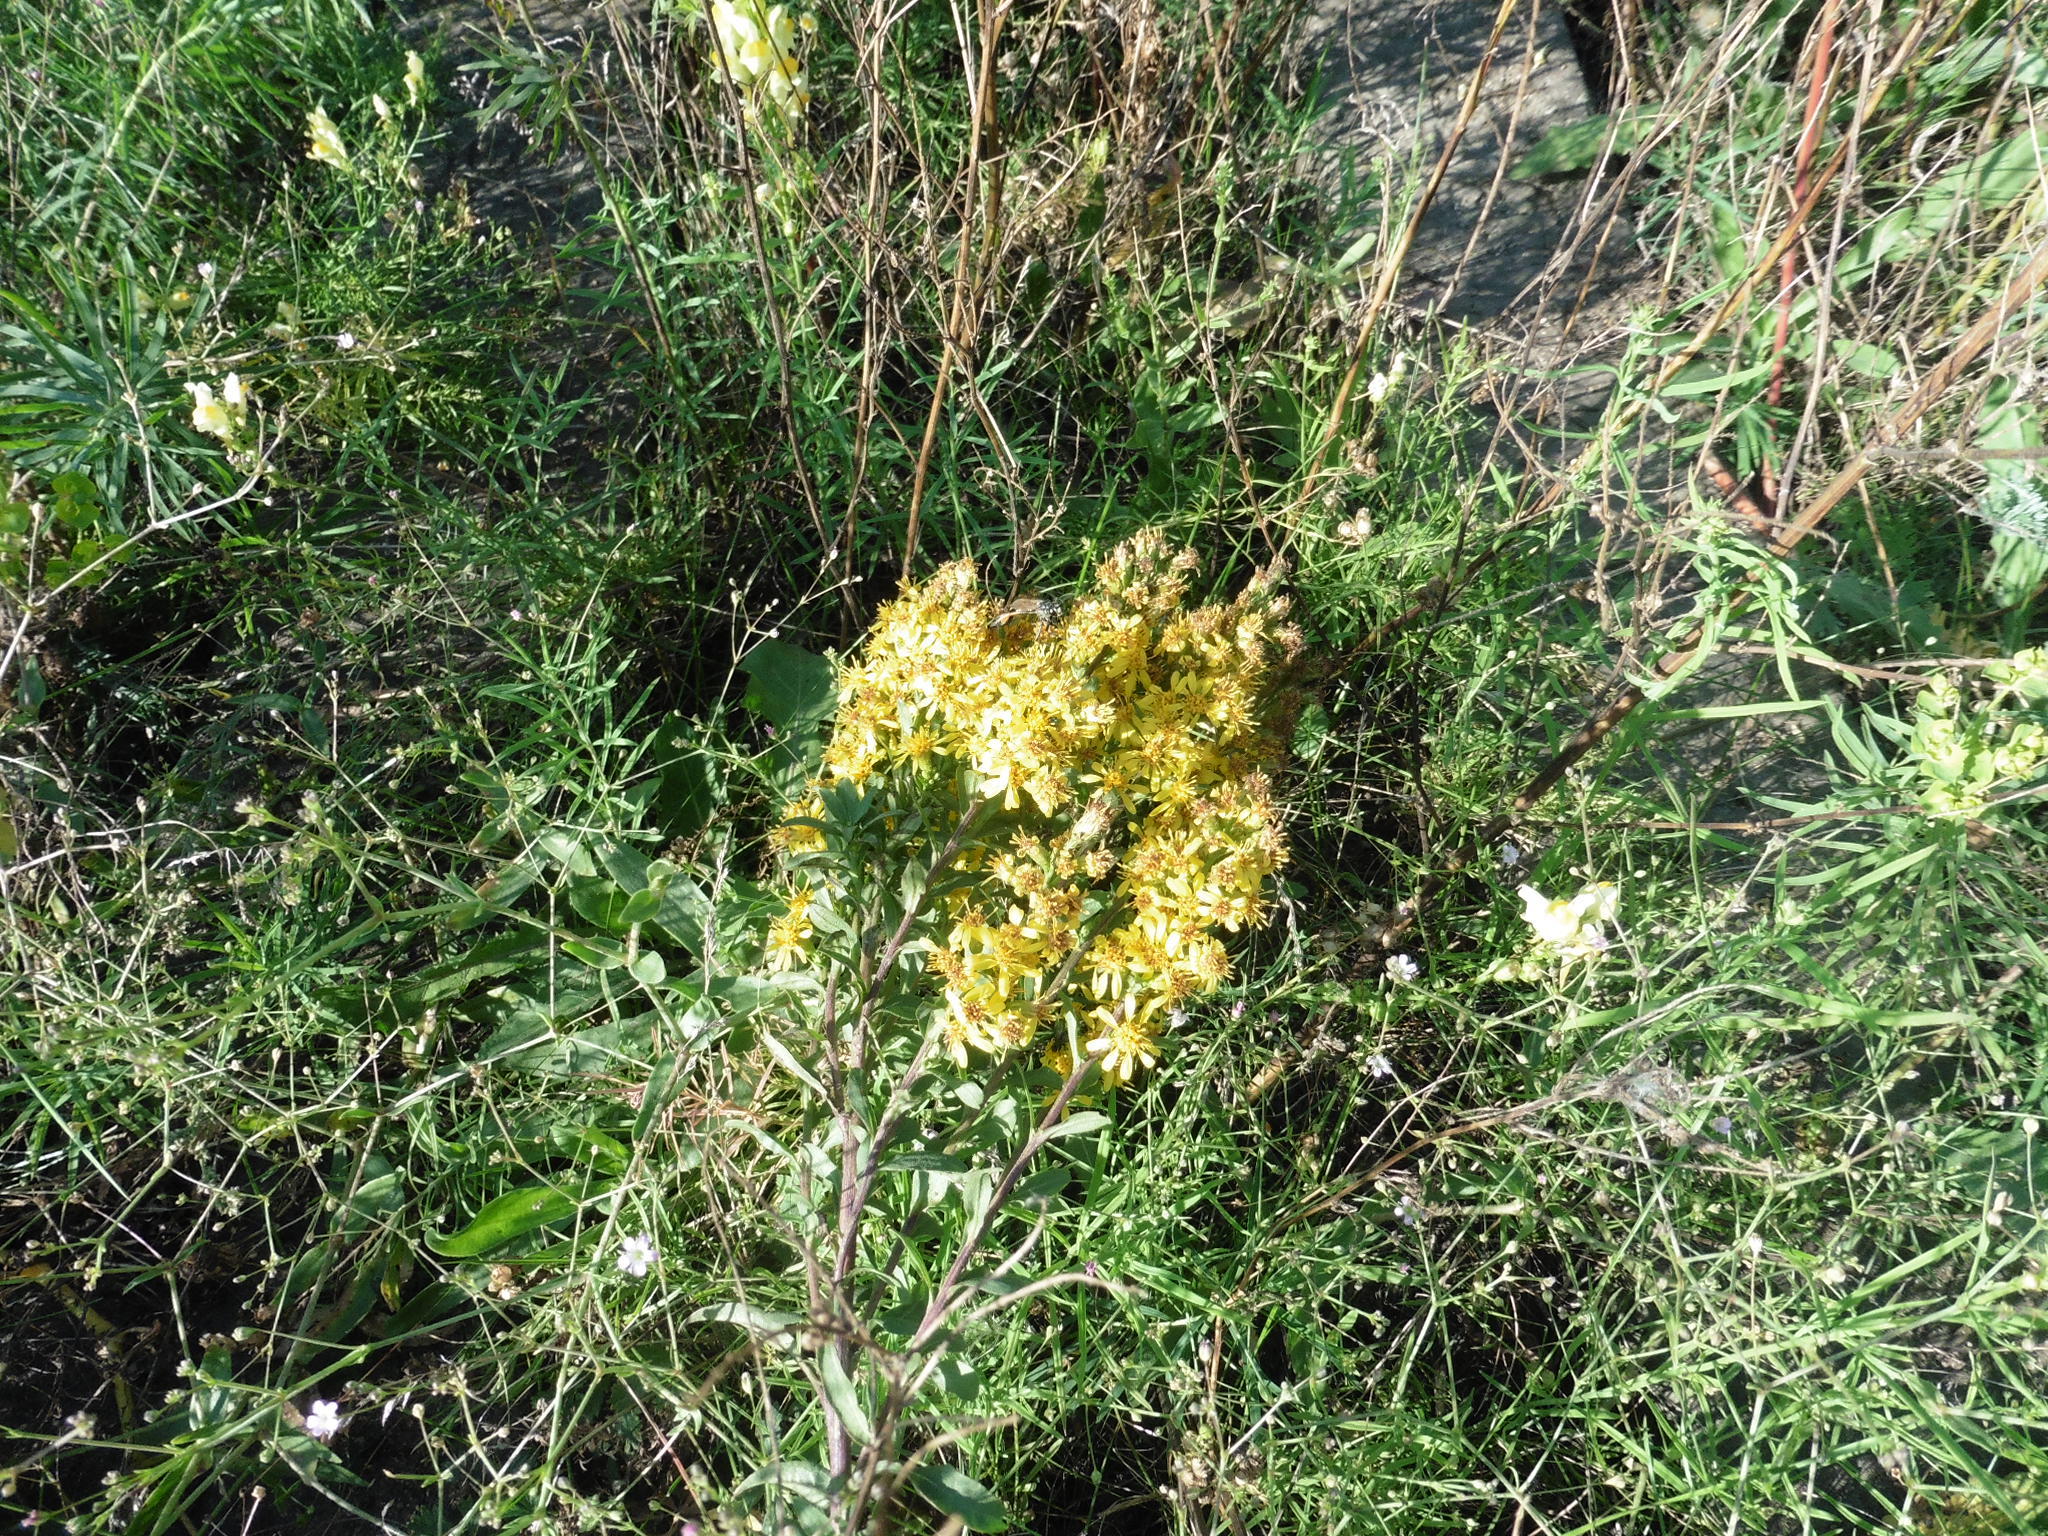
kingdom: Plantae
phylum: Tracheophyta
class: Magnoliopsida
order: Asterales
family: Asteraceae
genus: Solidago
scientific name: Solidago virgaurea
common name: Goldenrod
